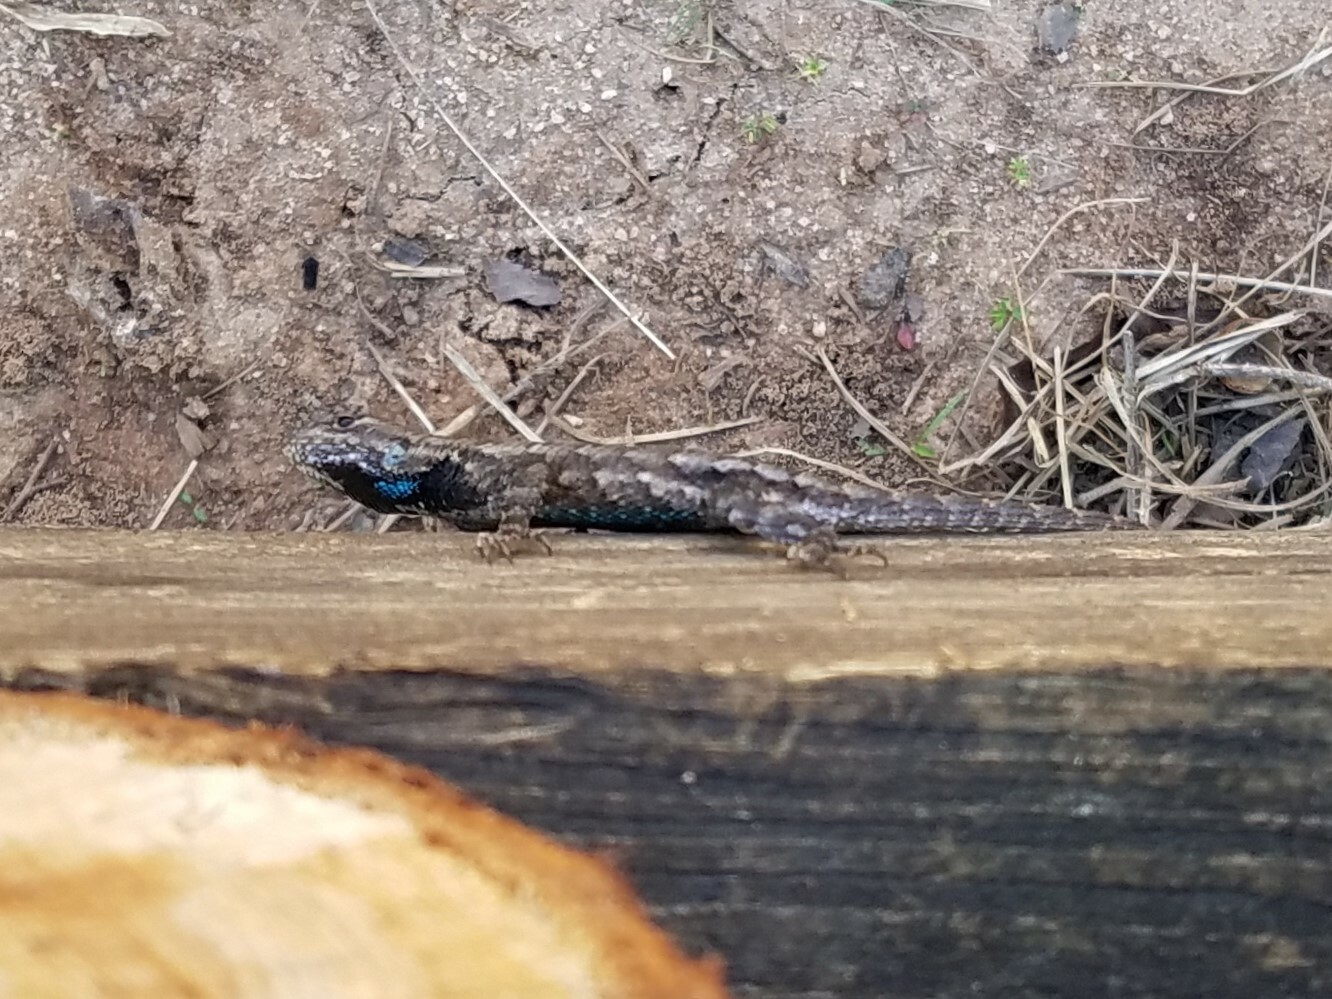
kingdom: Animalia
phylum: Chordata
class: Squamata
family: Phrynosomatidae
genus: Sceloporus
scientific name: Sceloporus undulatus
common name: Eastern fence lizard
